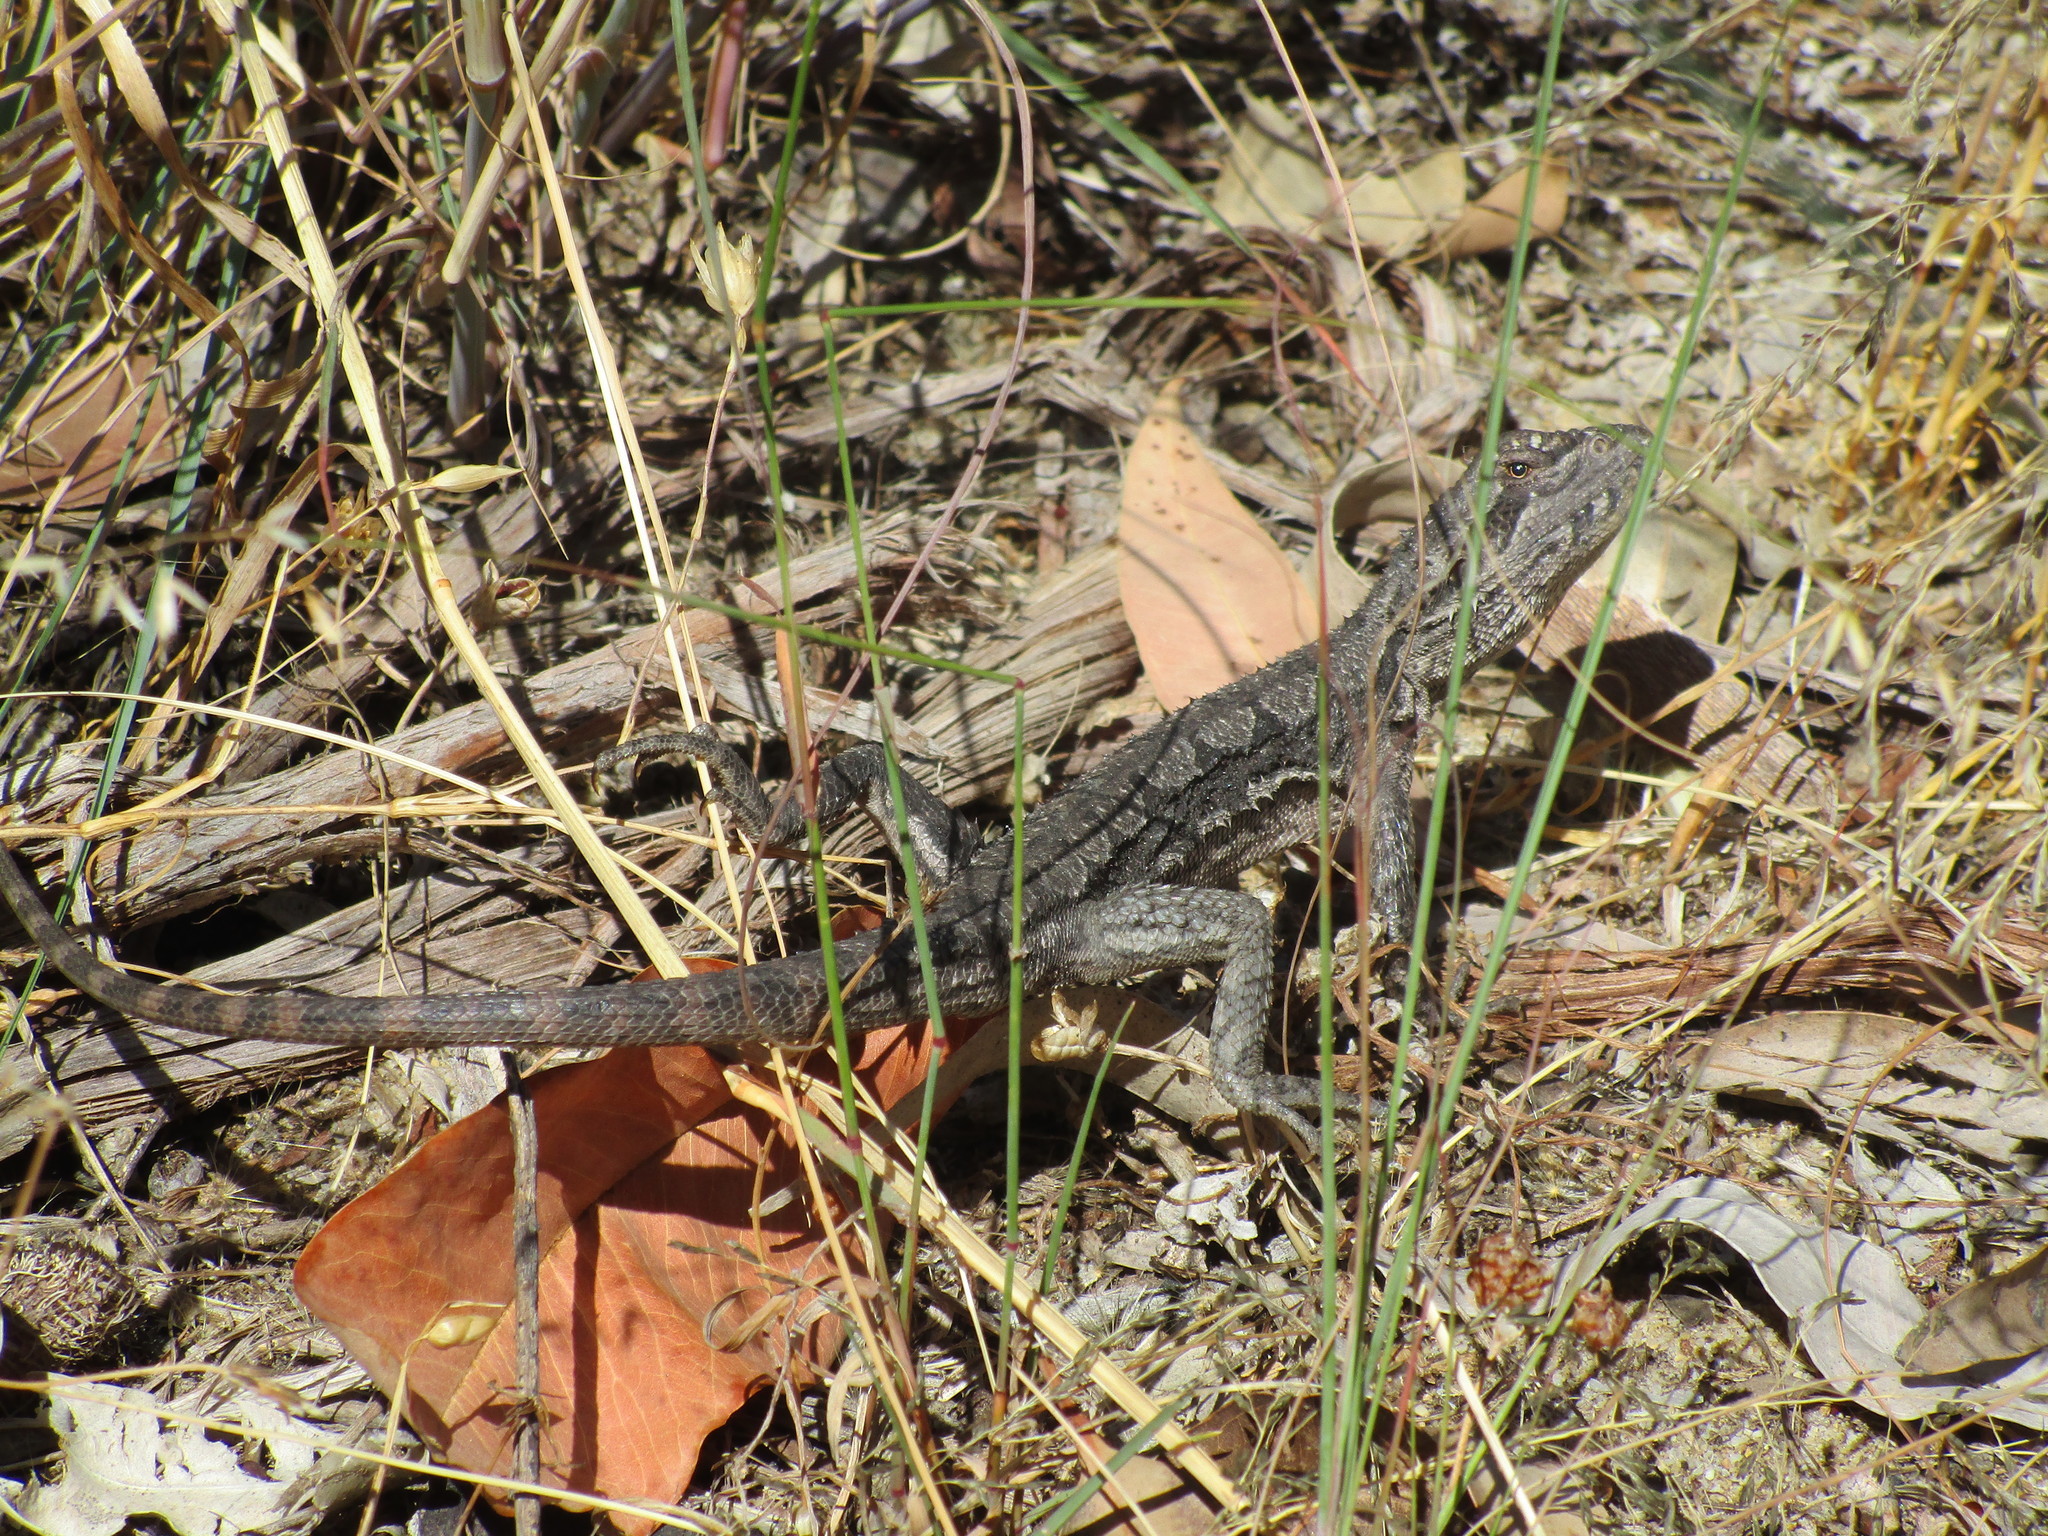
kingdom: Animalia
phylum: Chordata
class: Squamata
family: Agamidae
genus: Pogona
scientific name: Pogona minor
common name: Dwarf bearded dragon
